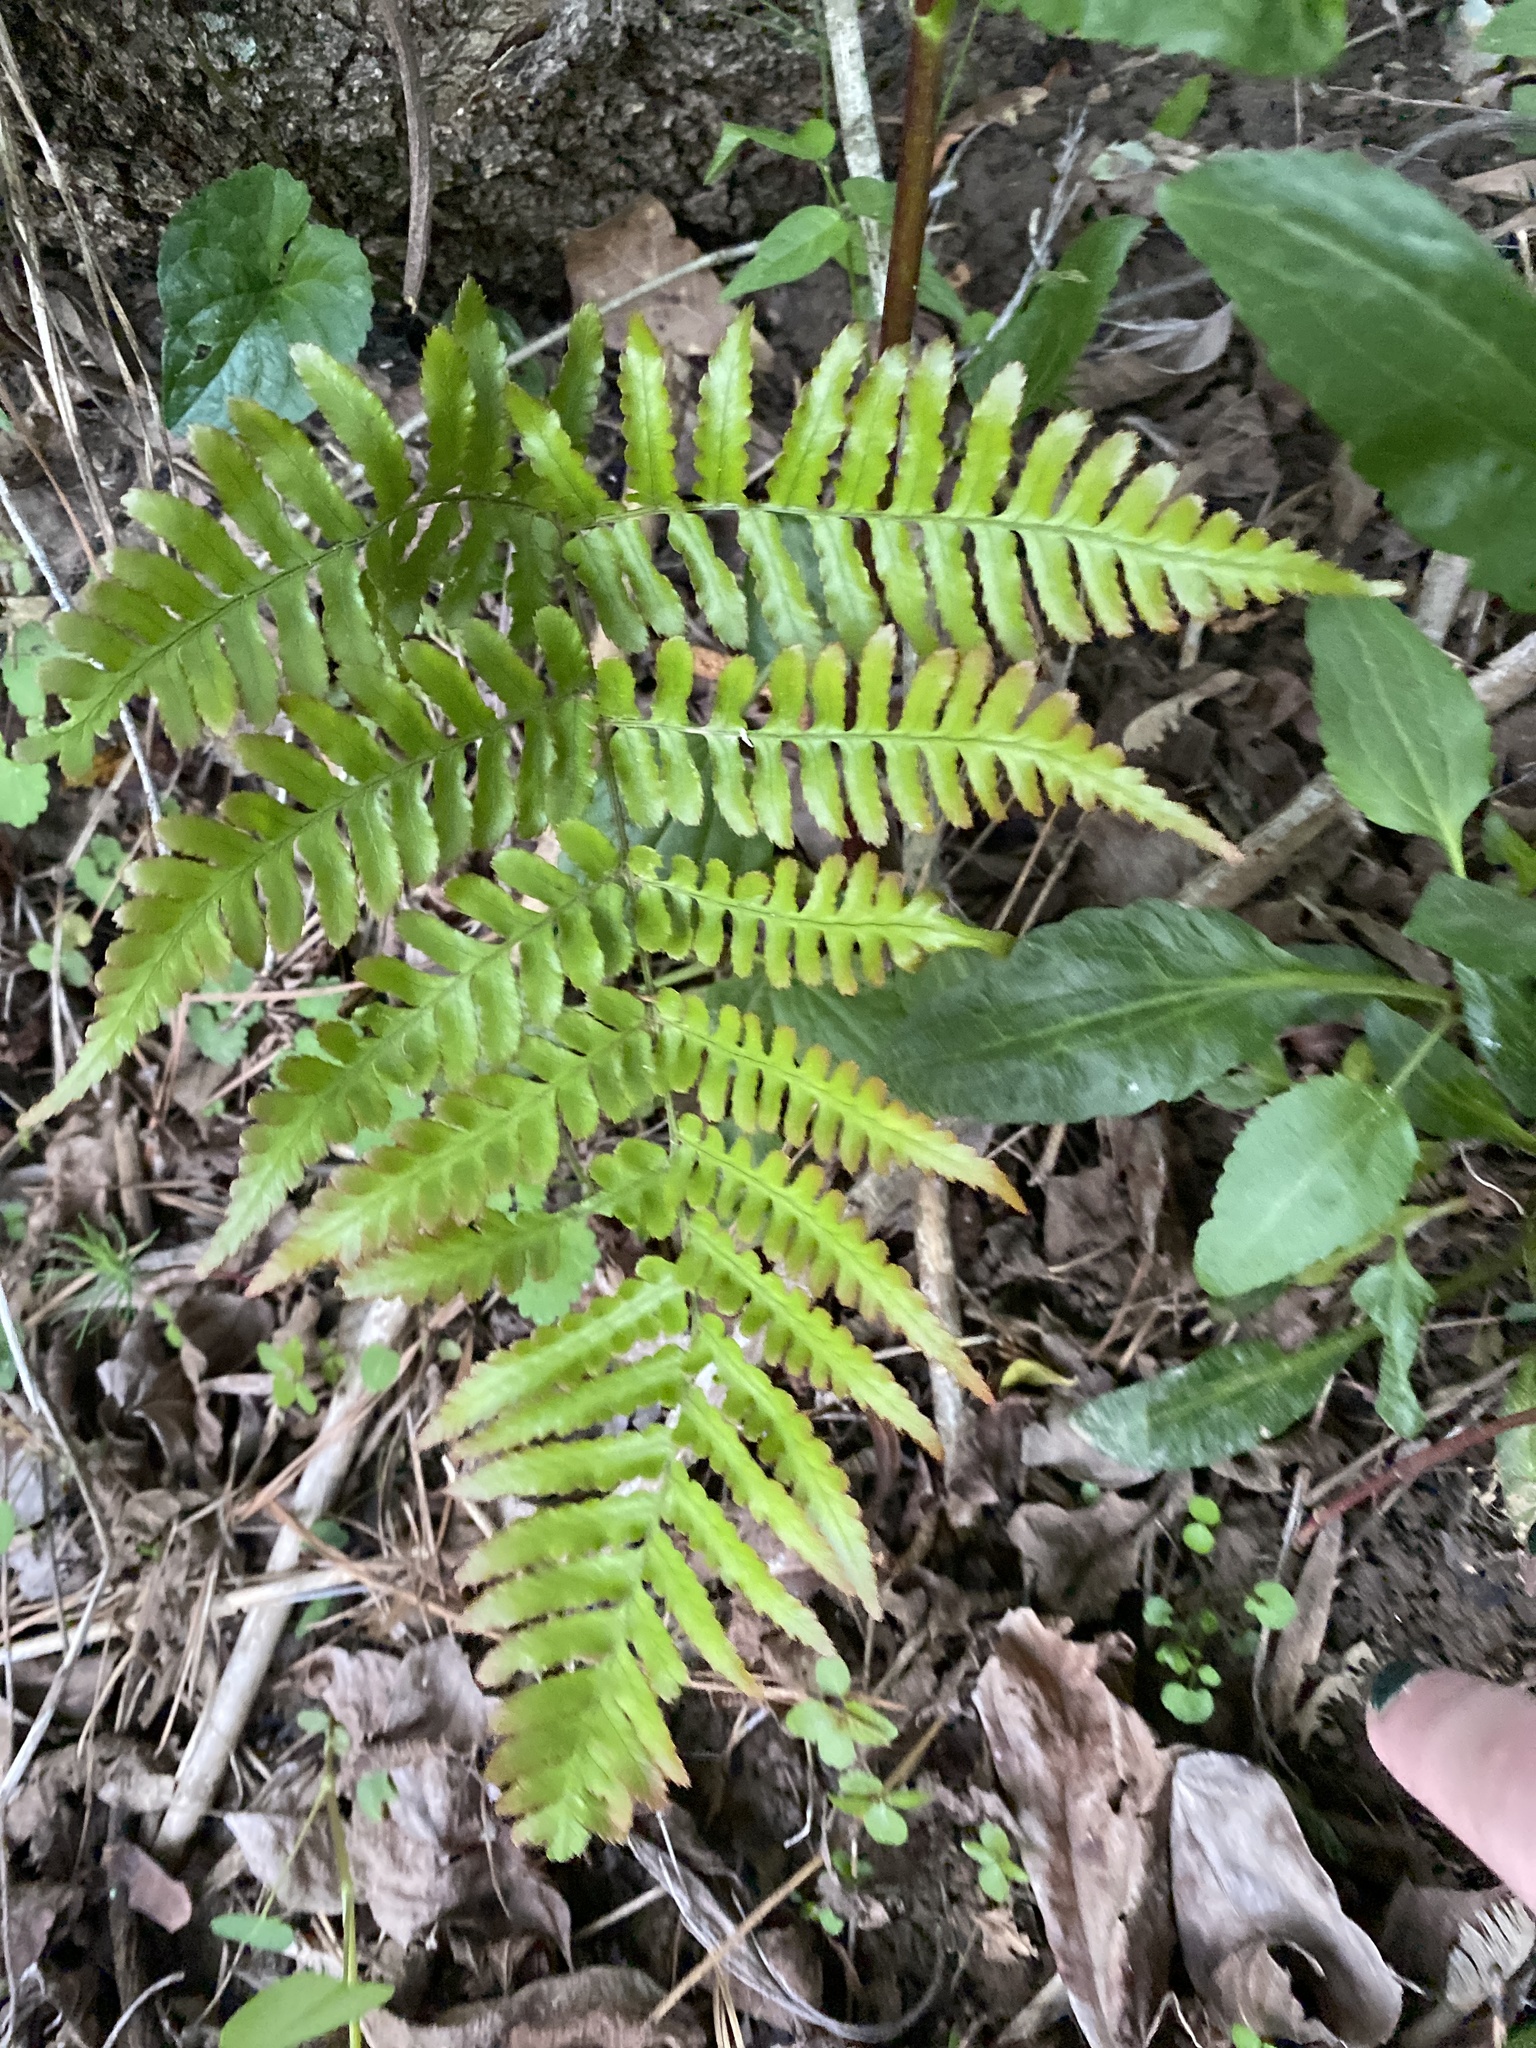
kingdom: Plantae
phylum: Tracheophyta
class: Polypodiopsida
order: Polypodiales
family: Dryopteridaceae
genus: Dryopteris
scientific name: Dryopteris erythrosora
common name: Autumn fern
